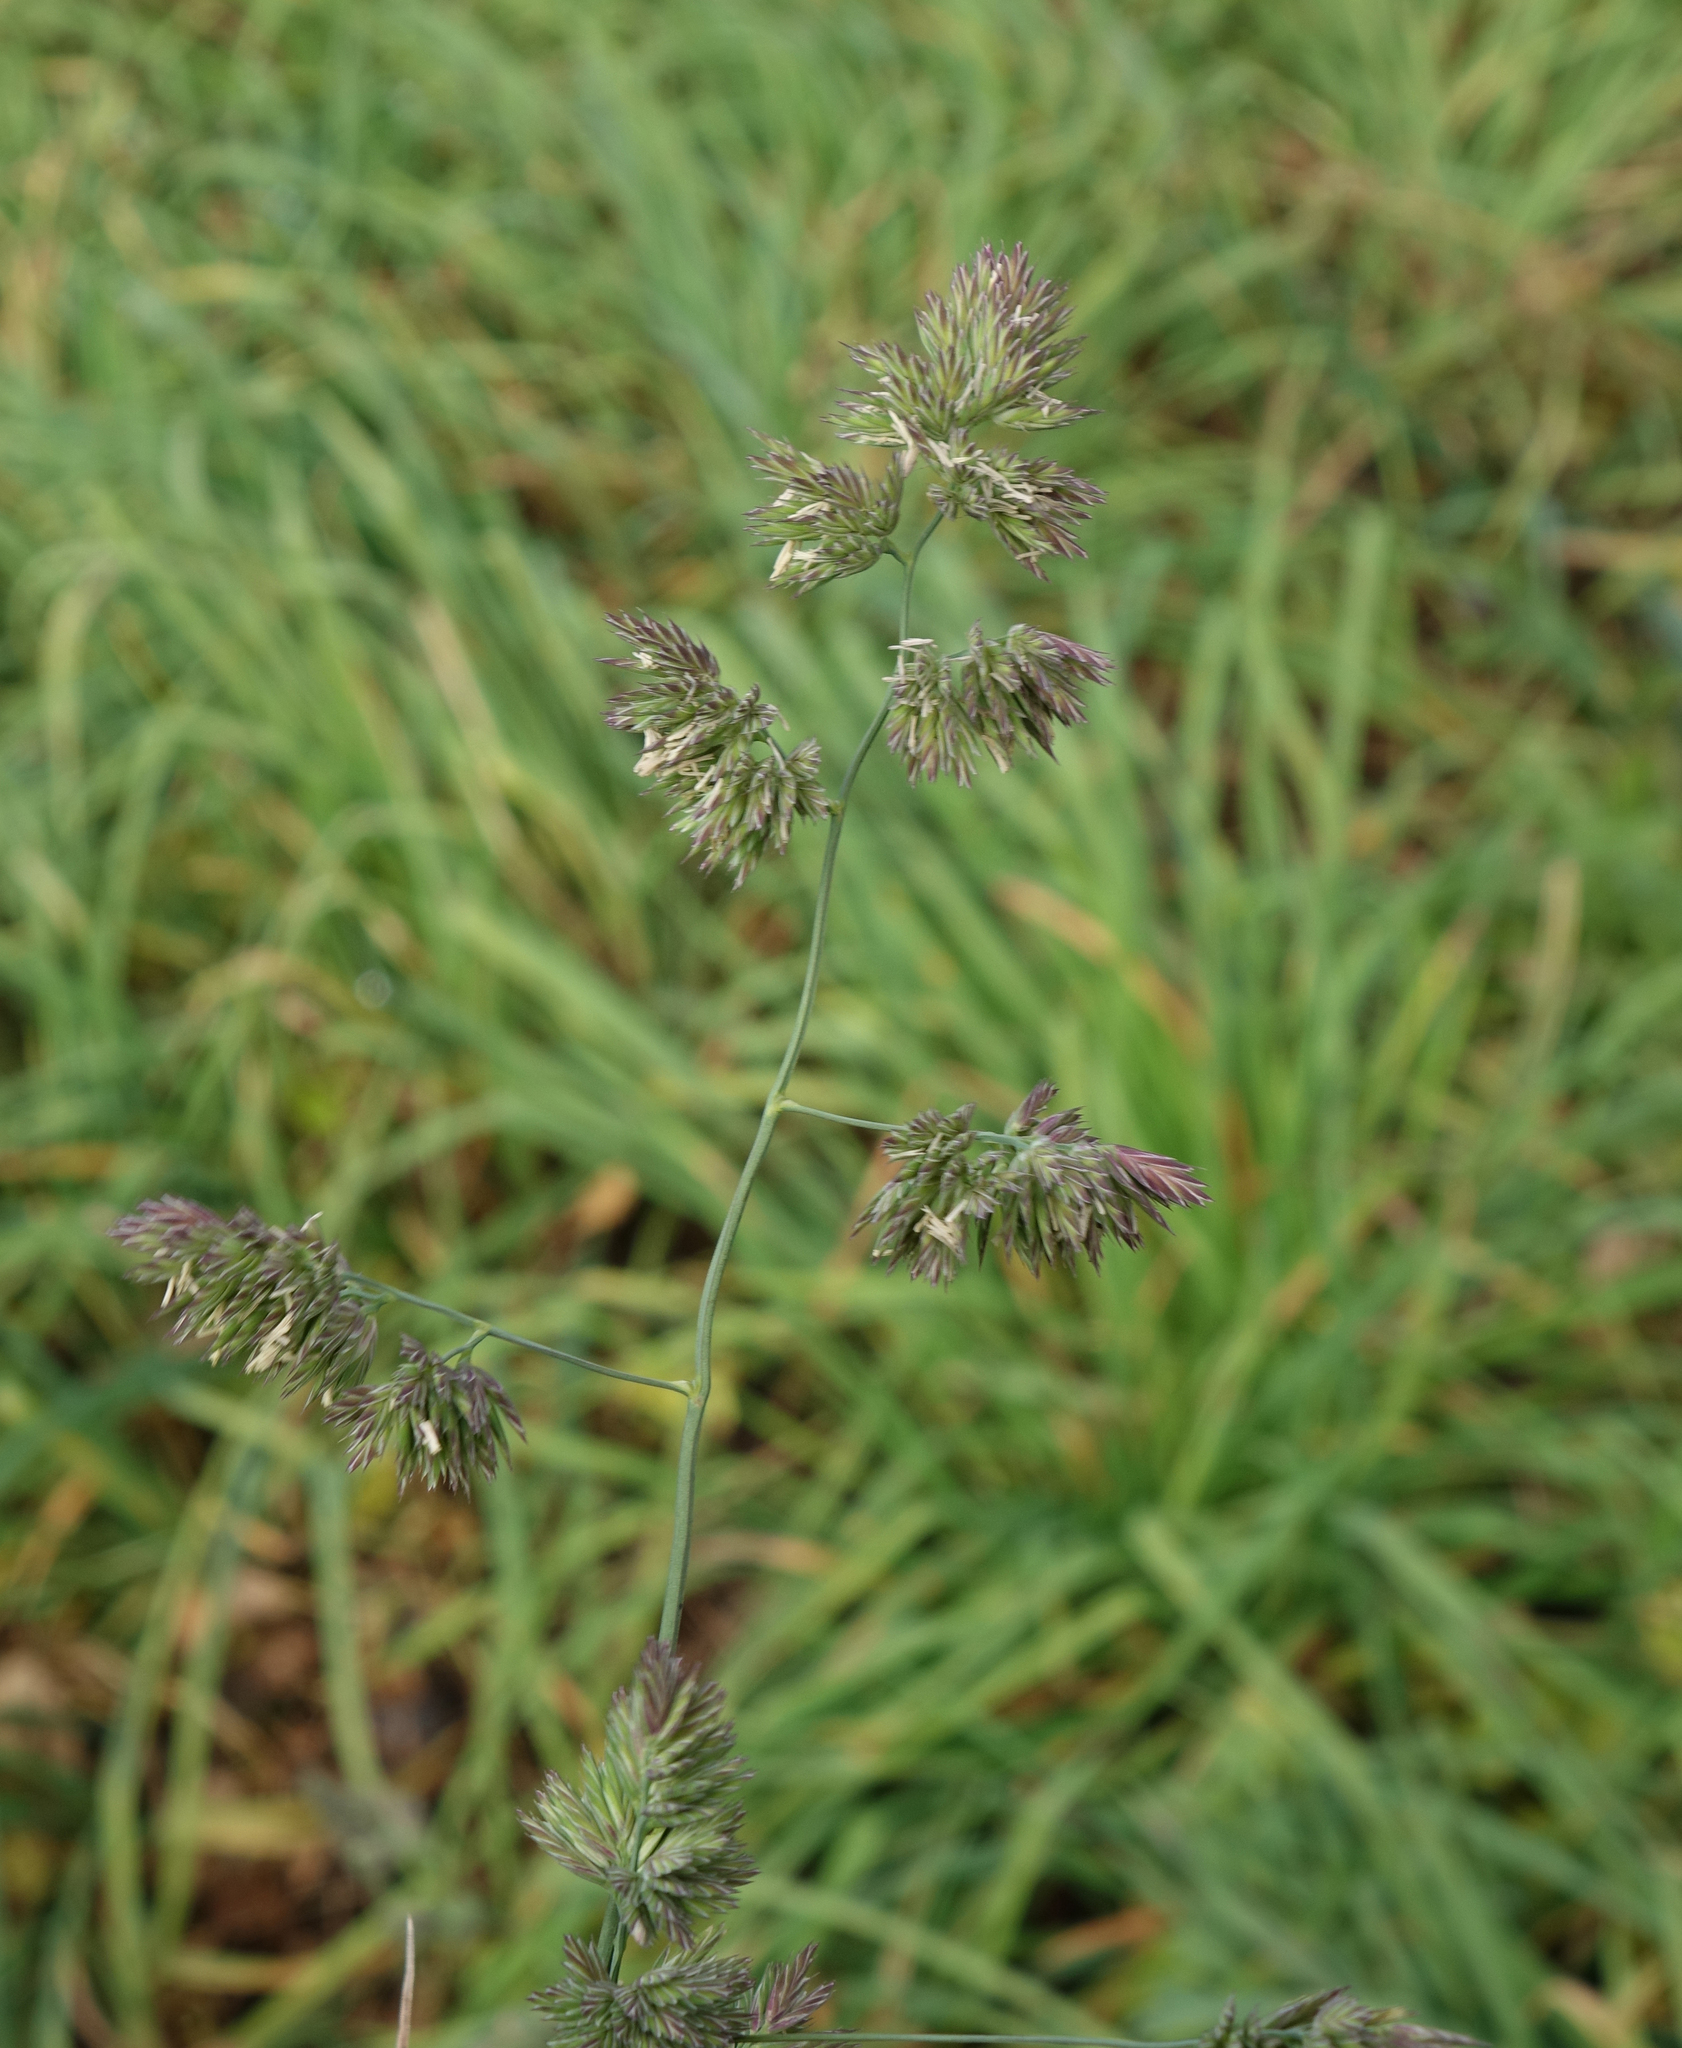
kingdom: Plantae
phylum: Tracheophyta
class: Liliopsida
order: Poales
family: Poaceae
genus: Dactylis
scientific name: Dactylis glomerata
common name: Orchardgrass
